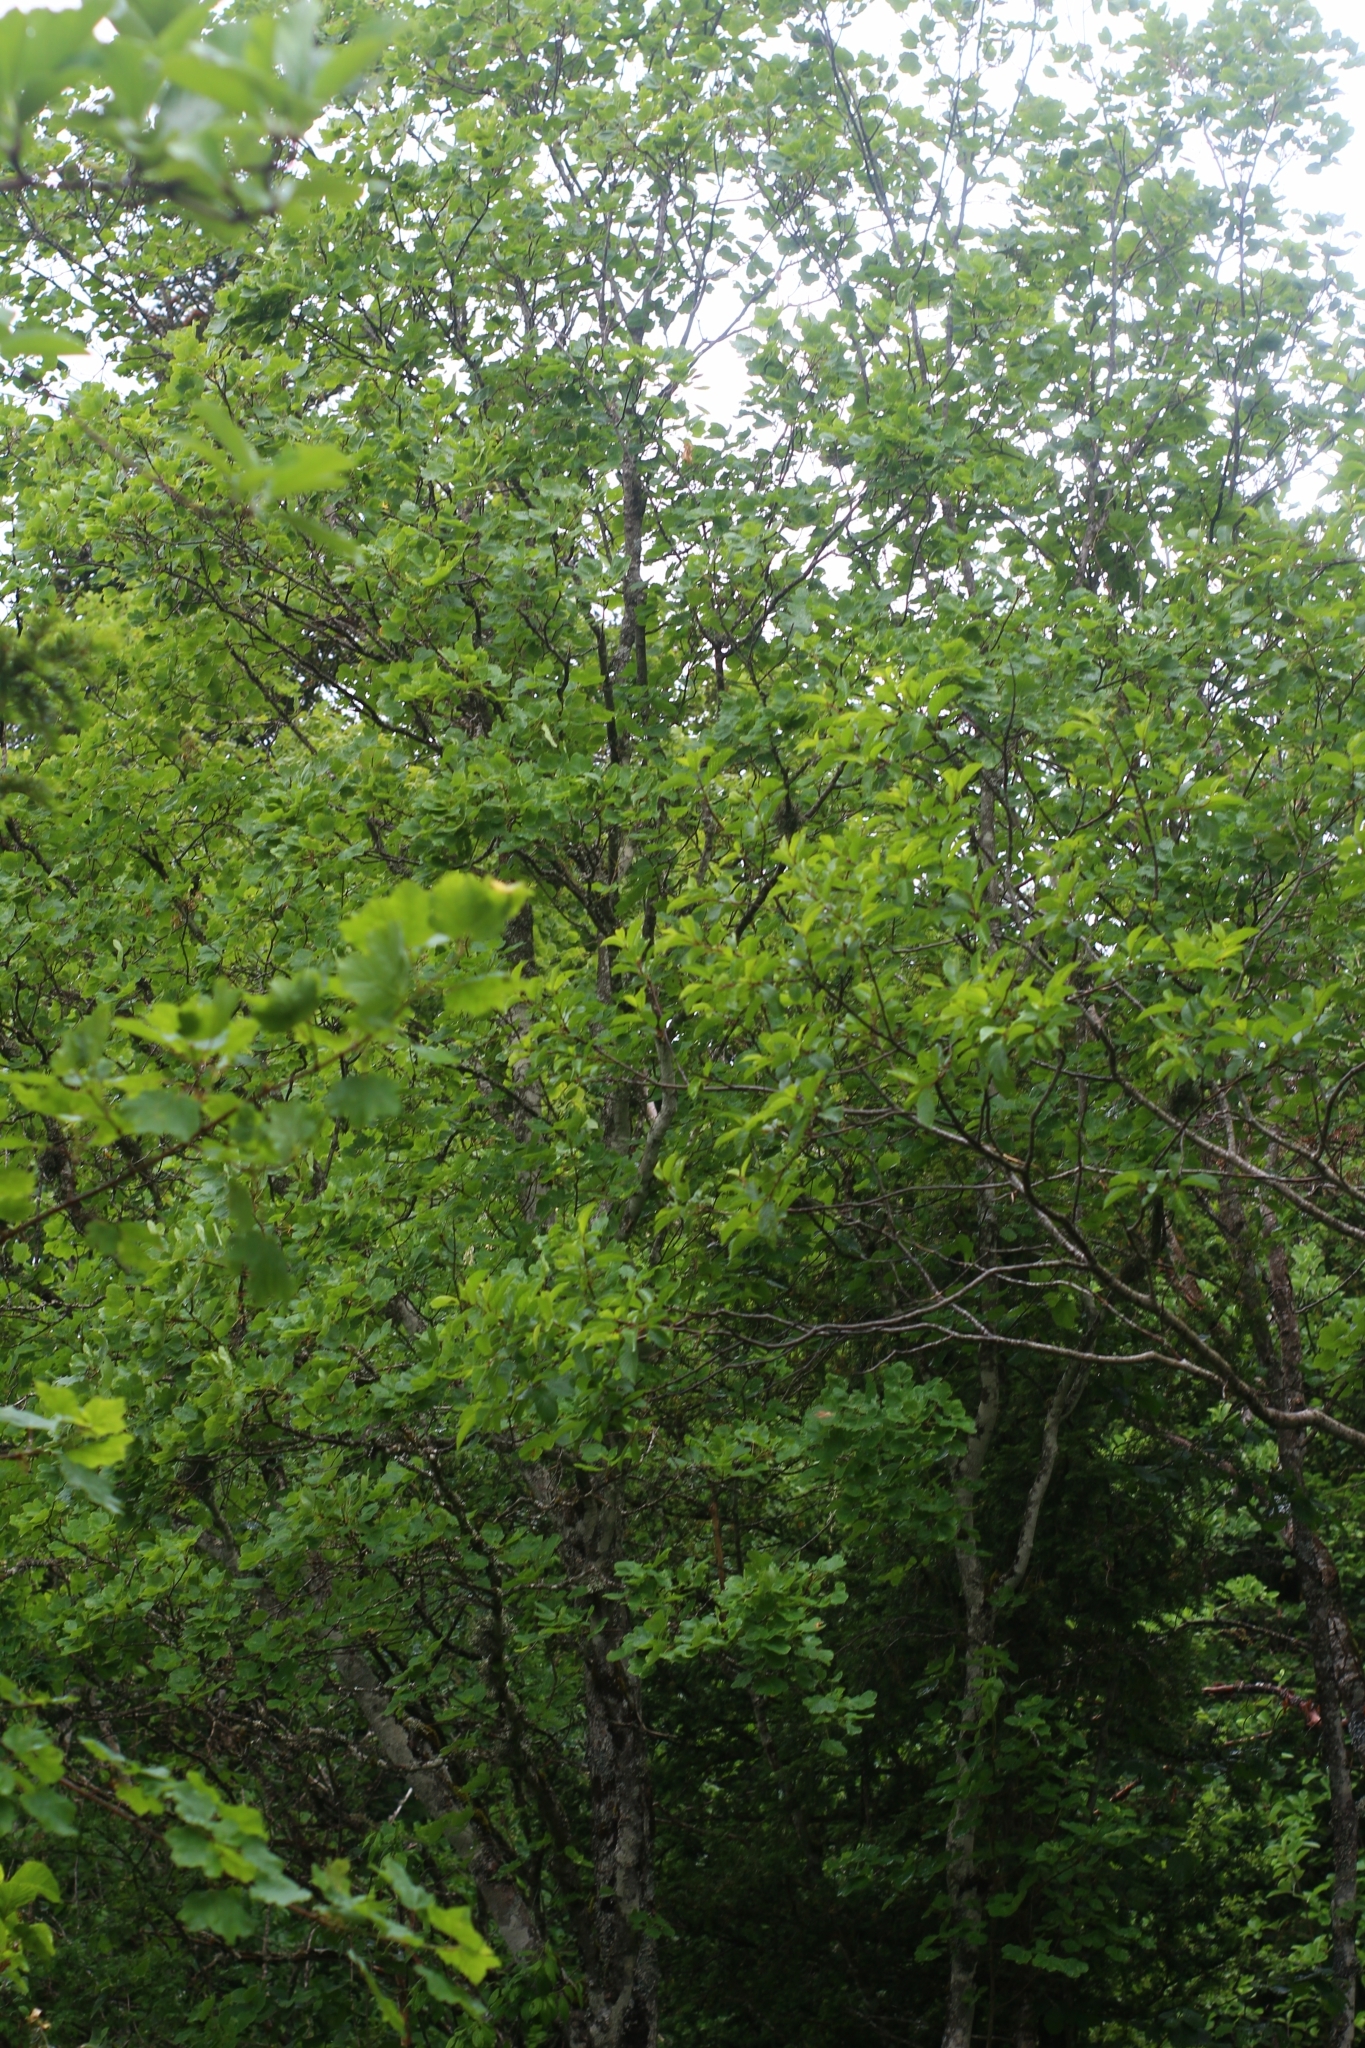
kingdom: Plantae
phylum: Tracheophyta
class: Magnoliopsida
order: Sapindales
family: Sapindaceae
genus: Acer
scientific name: Acer opalus
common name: Italian maple
